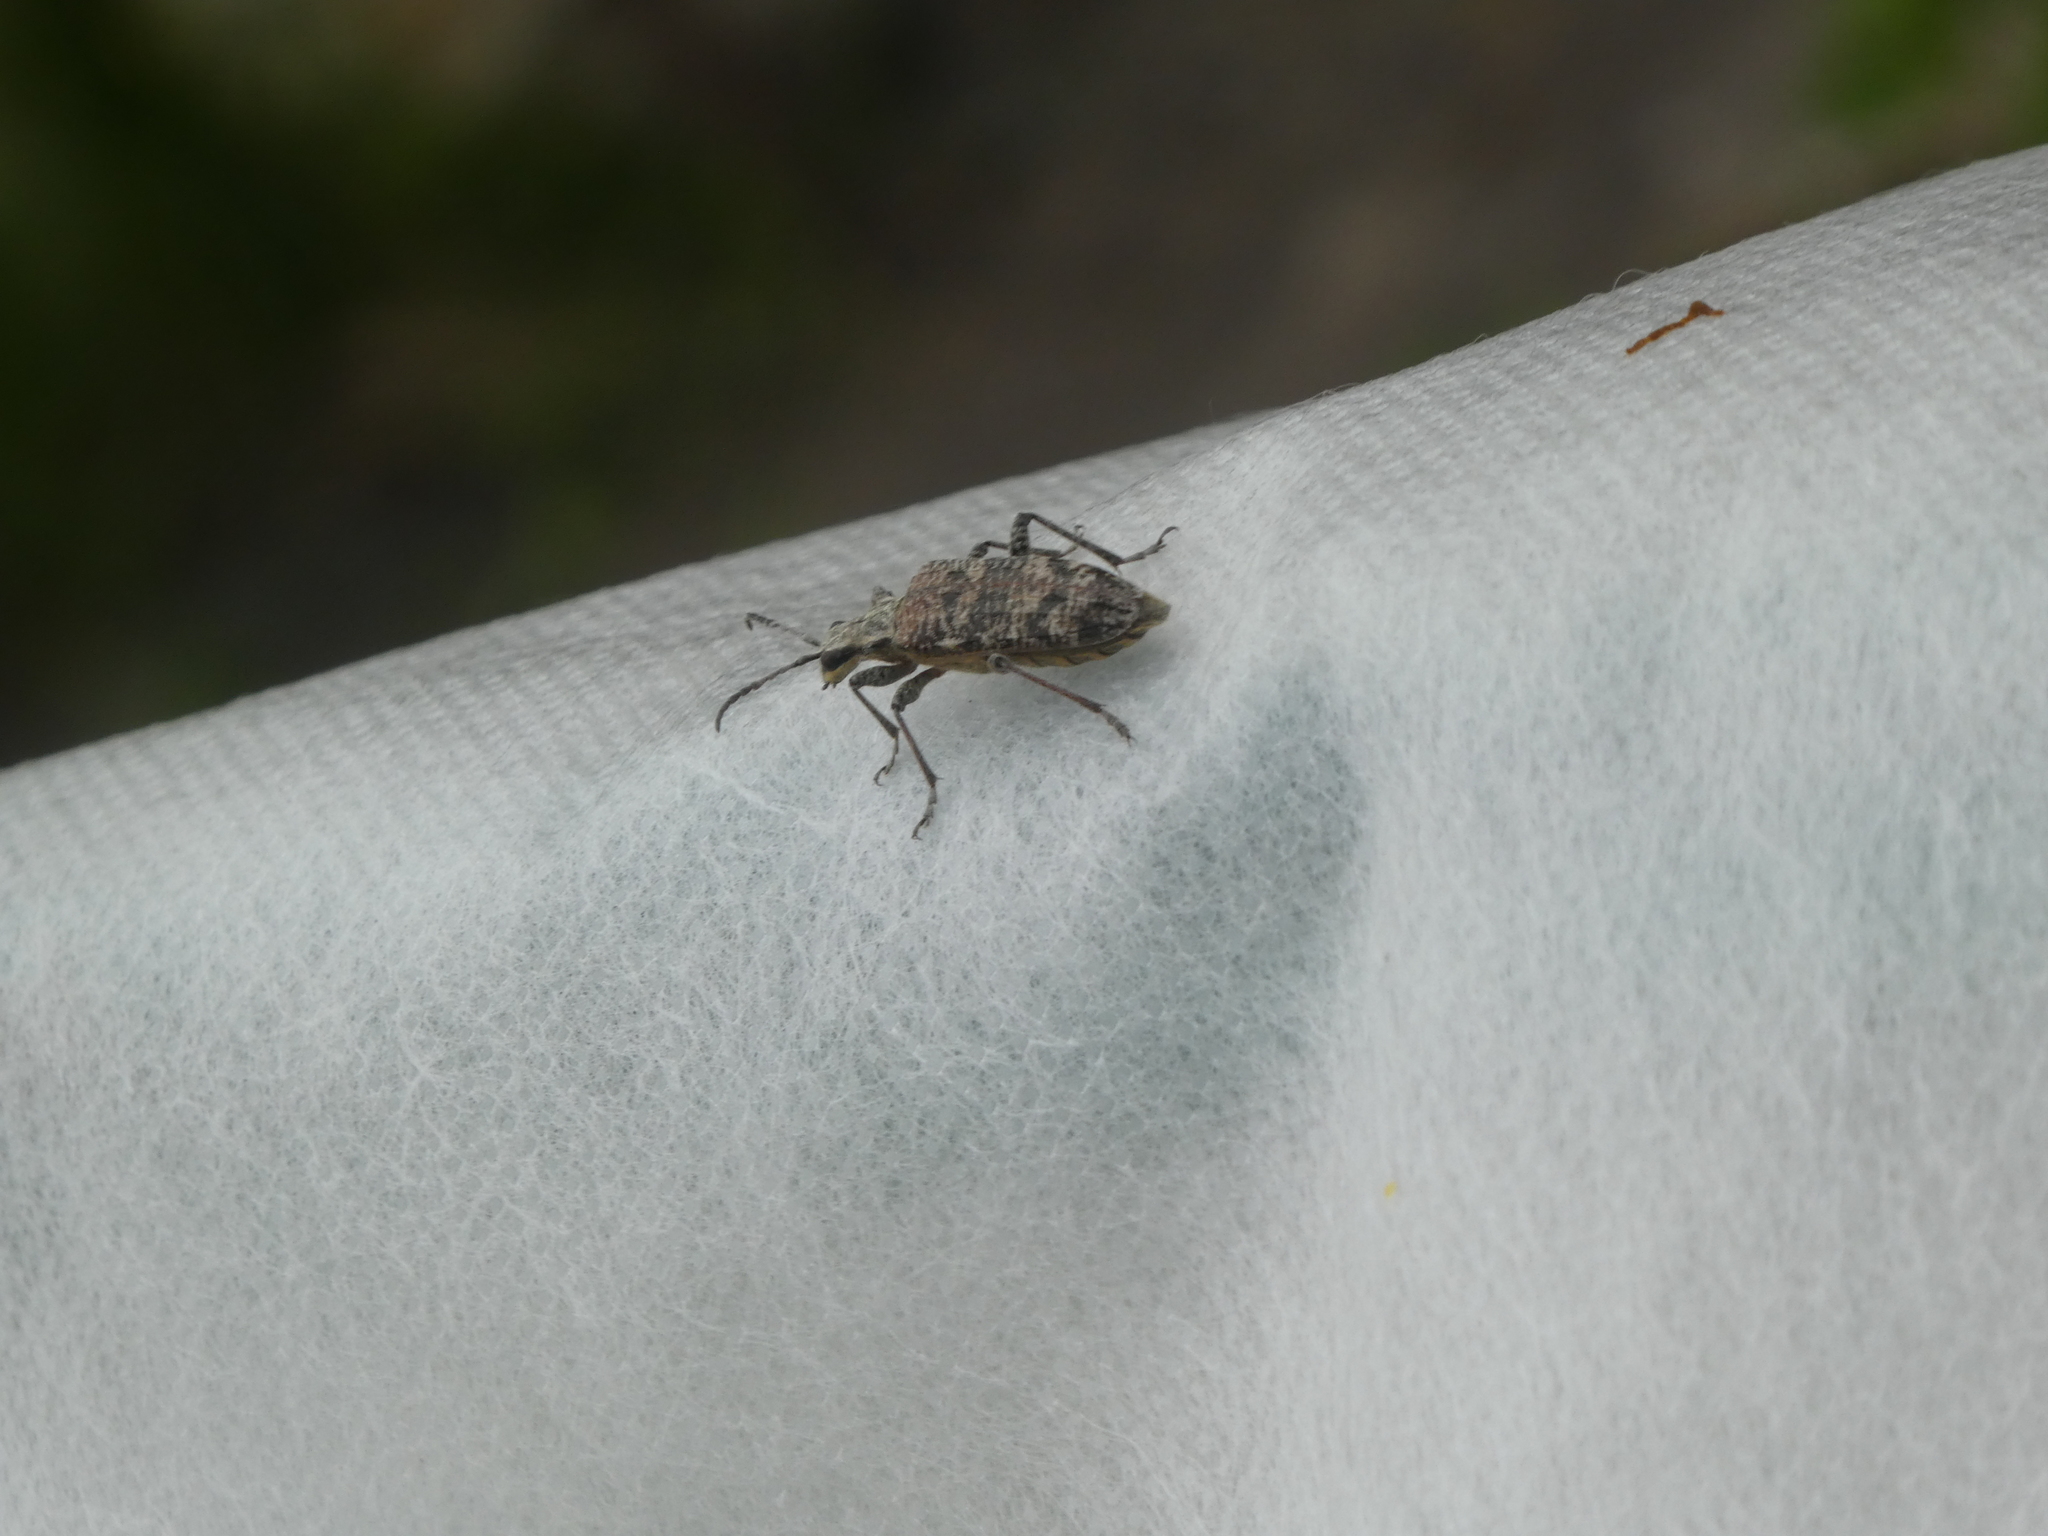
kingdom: Animalia
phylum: Arthropoda
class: Insecta
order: Coleoptera
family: Cerambycidae
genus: Rhagium
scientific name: Rhagium inquisitor
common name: Ribbed pine borer
